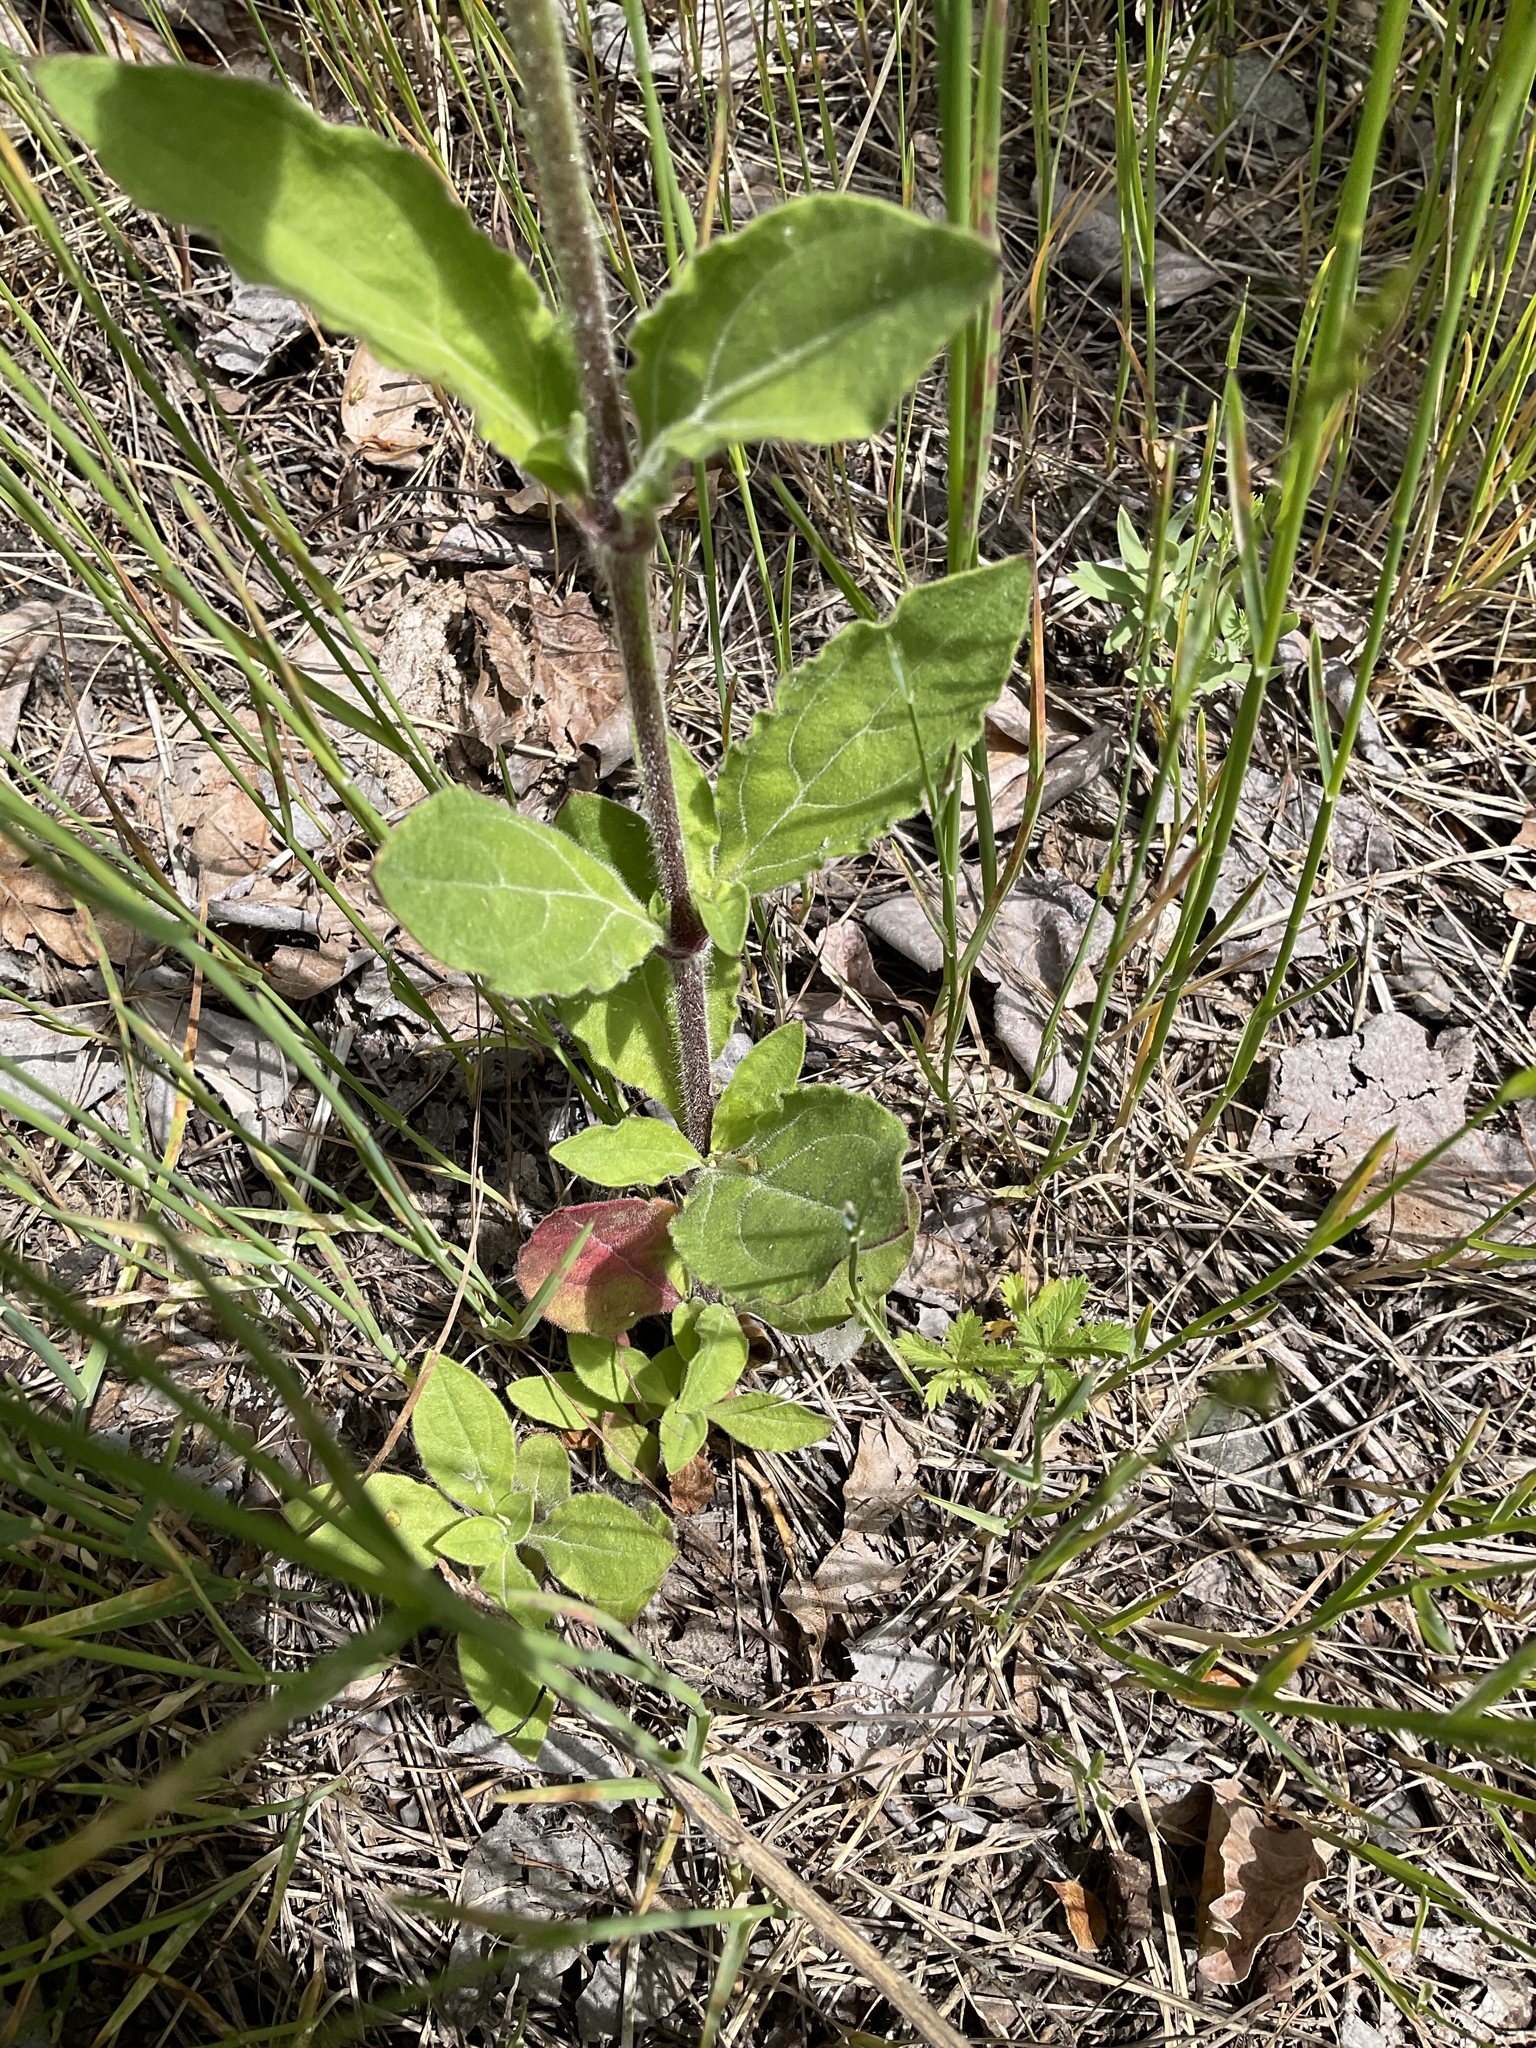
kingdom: Plantae
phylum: Tracheophyta
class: Magnoliopsida
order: Caryophyllales
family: Caryophyllaceae
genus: Silene
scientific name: Silene latifolia
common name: White campion
